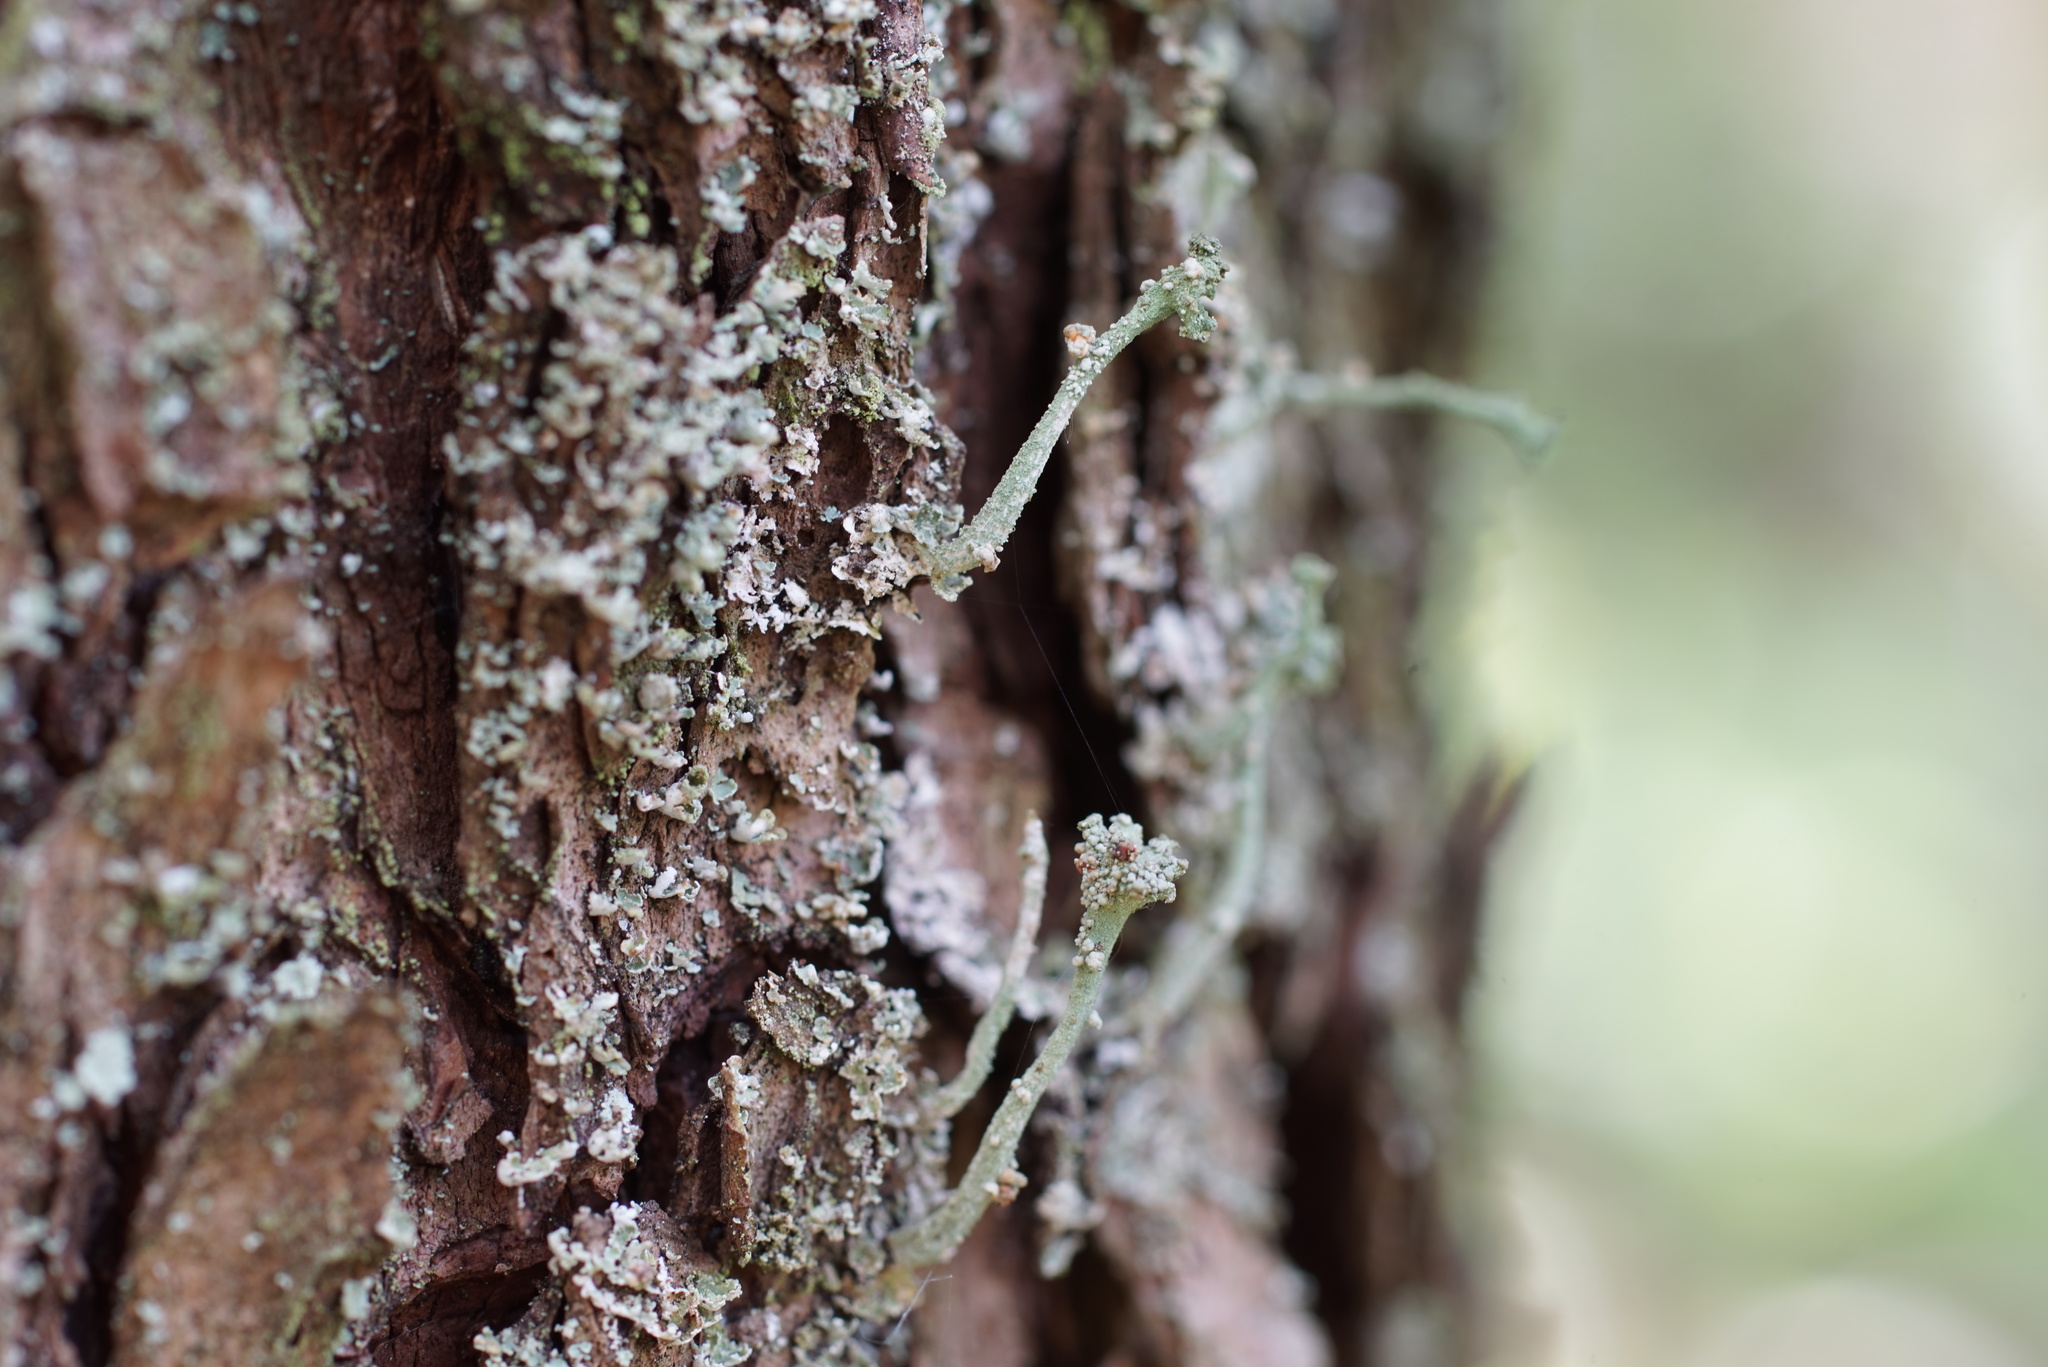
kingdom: Fungi
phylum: Basidiomycota
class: Tremellomycetes
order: Tremellales
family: Tremellaceae
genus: Tremella
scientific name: Tremella cladoniae
